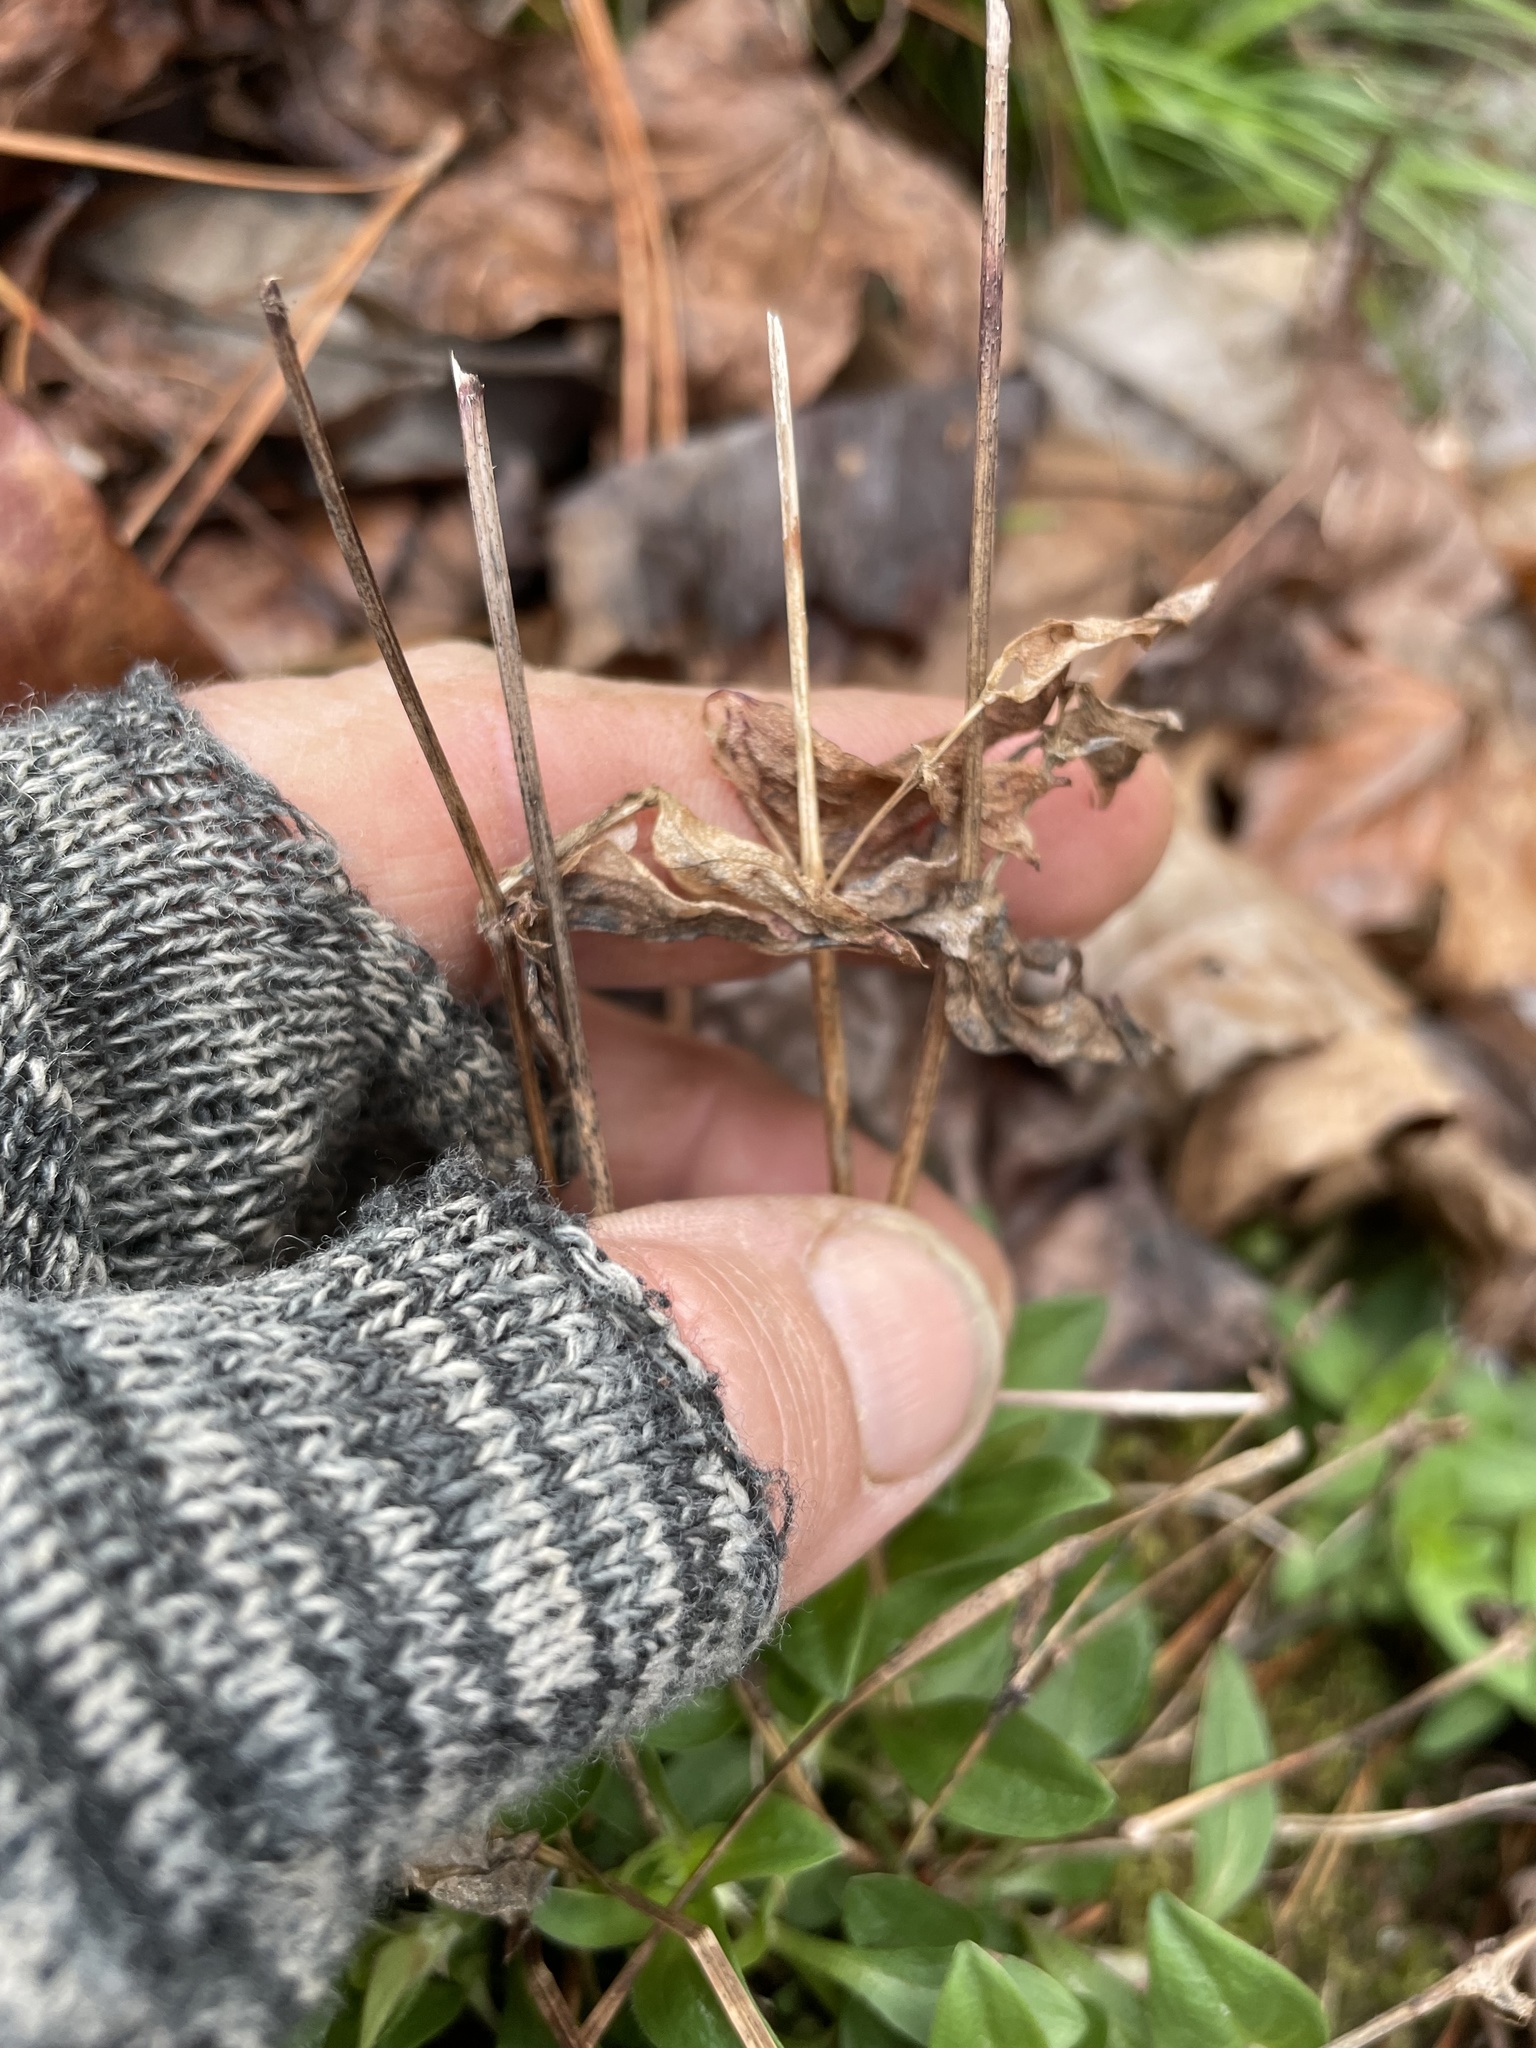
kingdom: Plantae
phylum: Tracheophyta
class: Magnoliopsida
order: Gentianales
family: Rubiaceae
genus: Houstonia
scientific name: Houstonia purpurea
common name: Summer bluet
